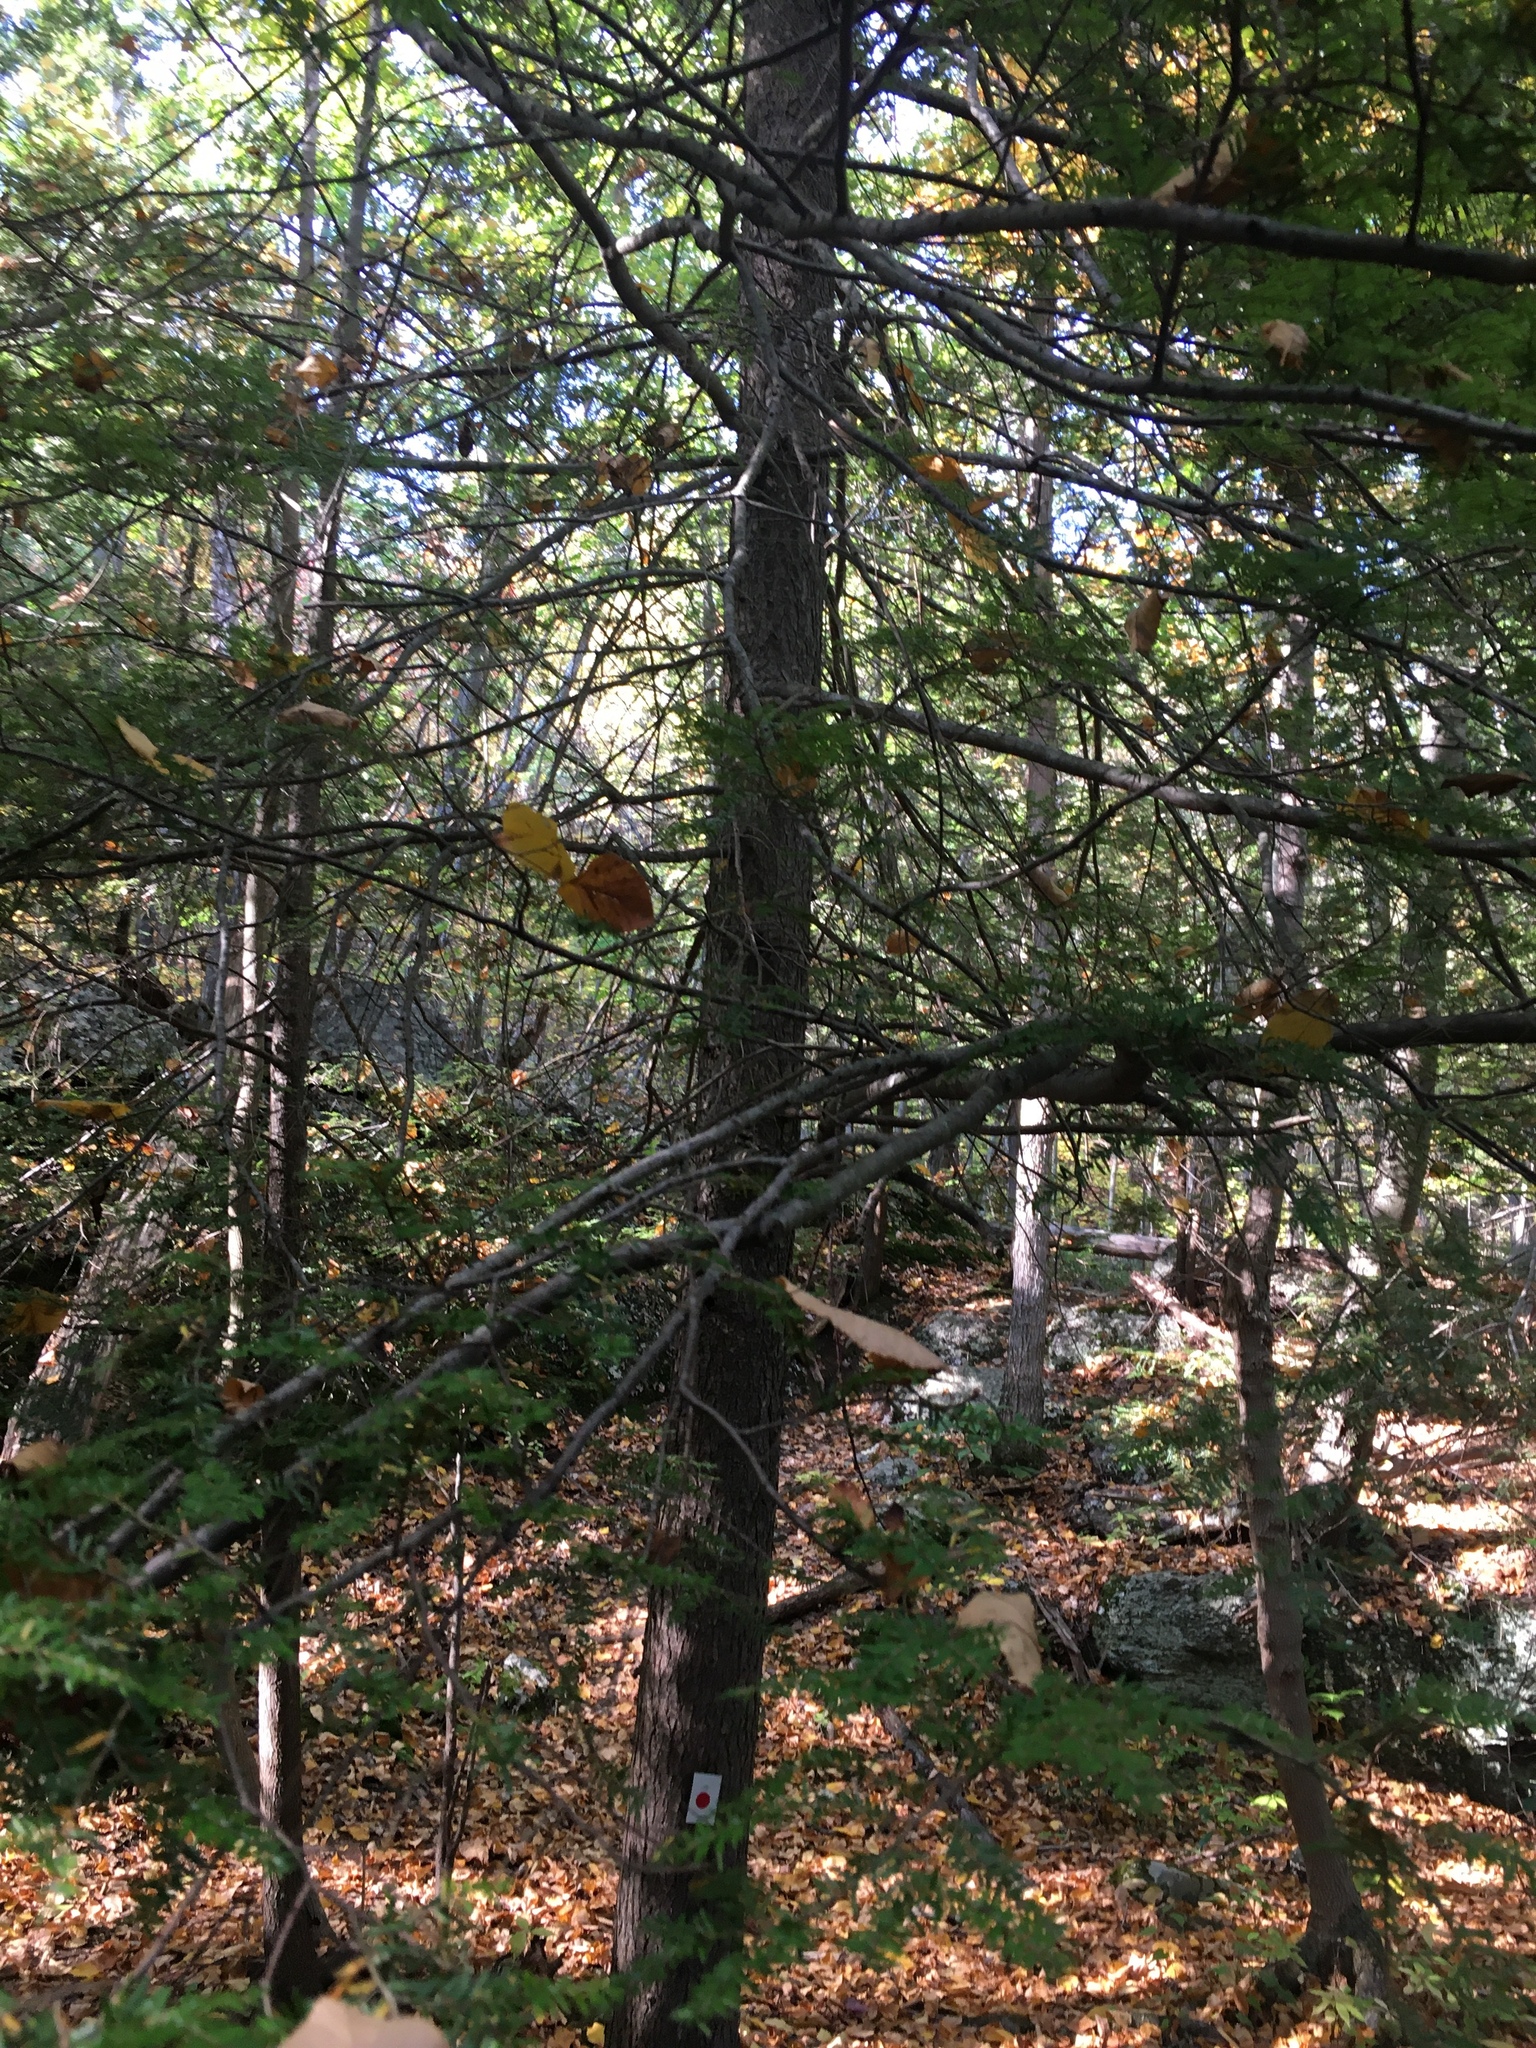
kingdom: Plantae
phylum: Tracheophyta
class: Pinopsida
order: Pinales
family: Pinaceae
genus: Tsuga
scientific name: Tsuga canadensis
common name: Eastern hemlock
